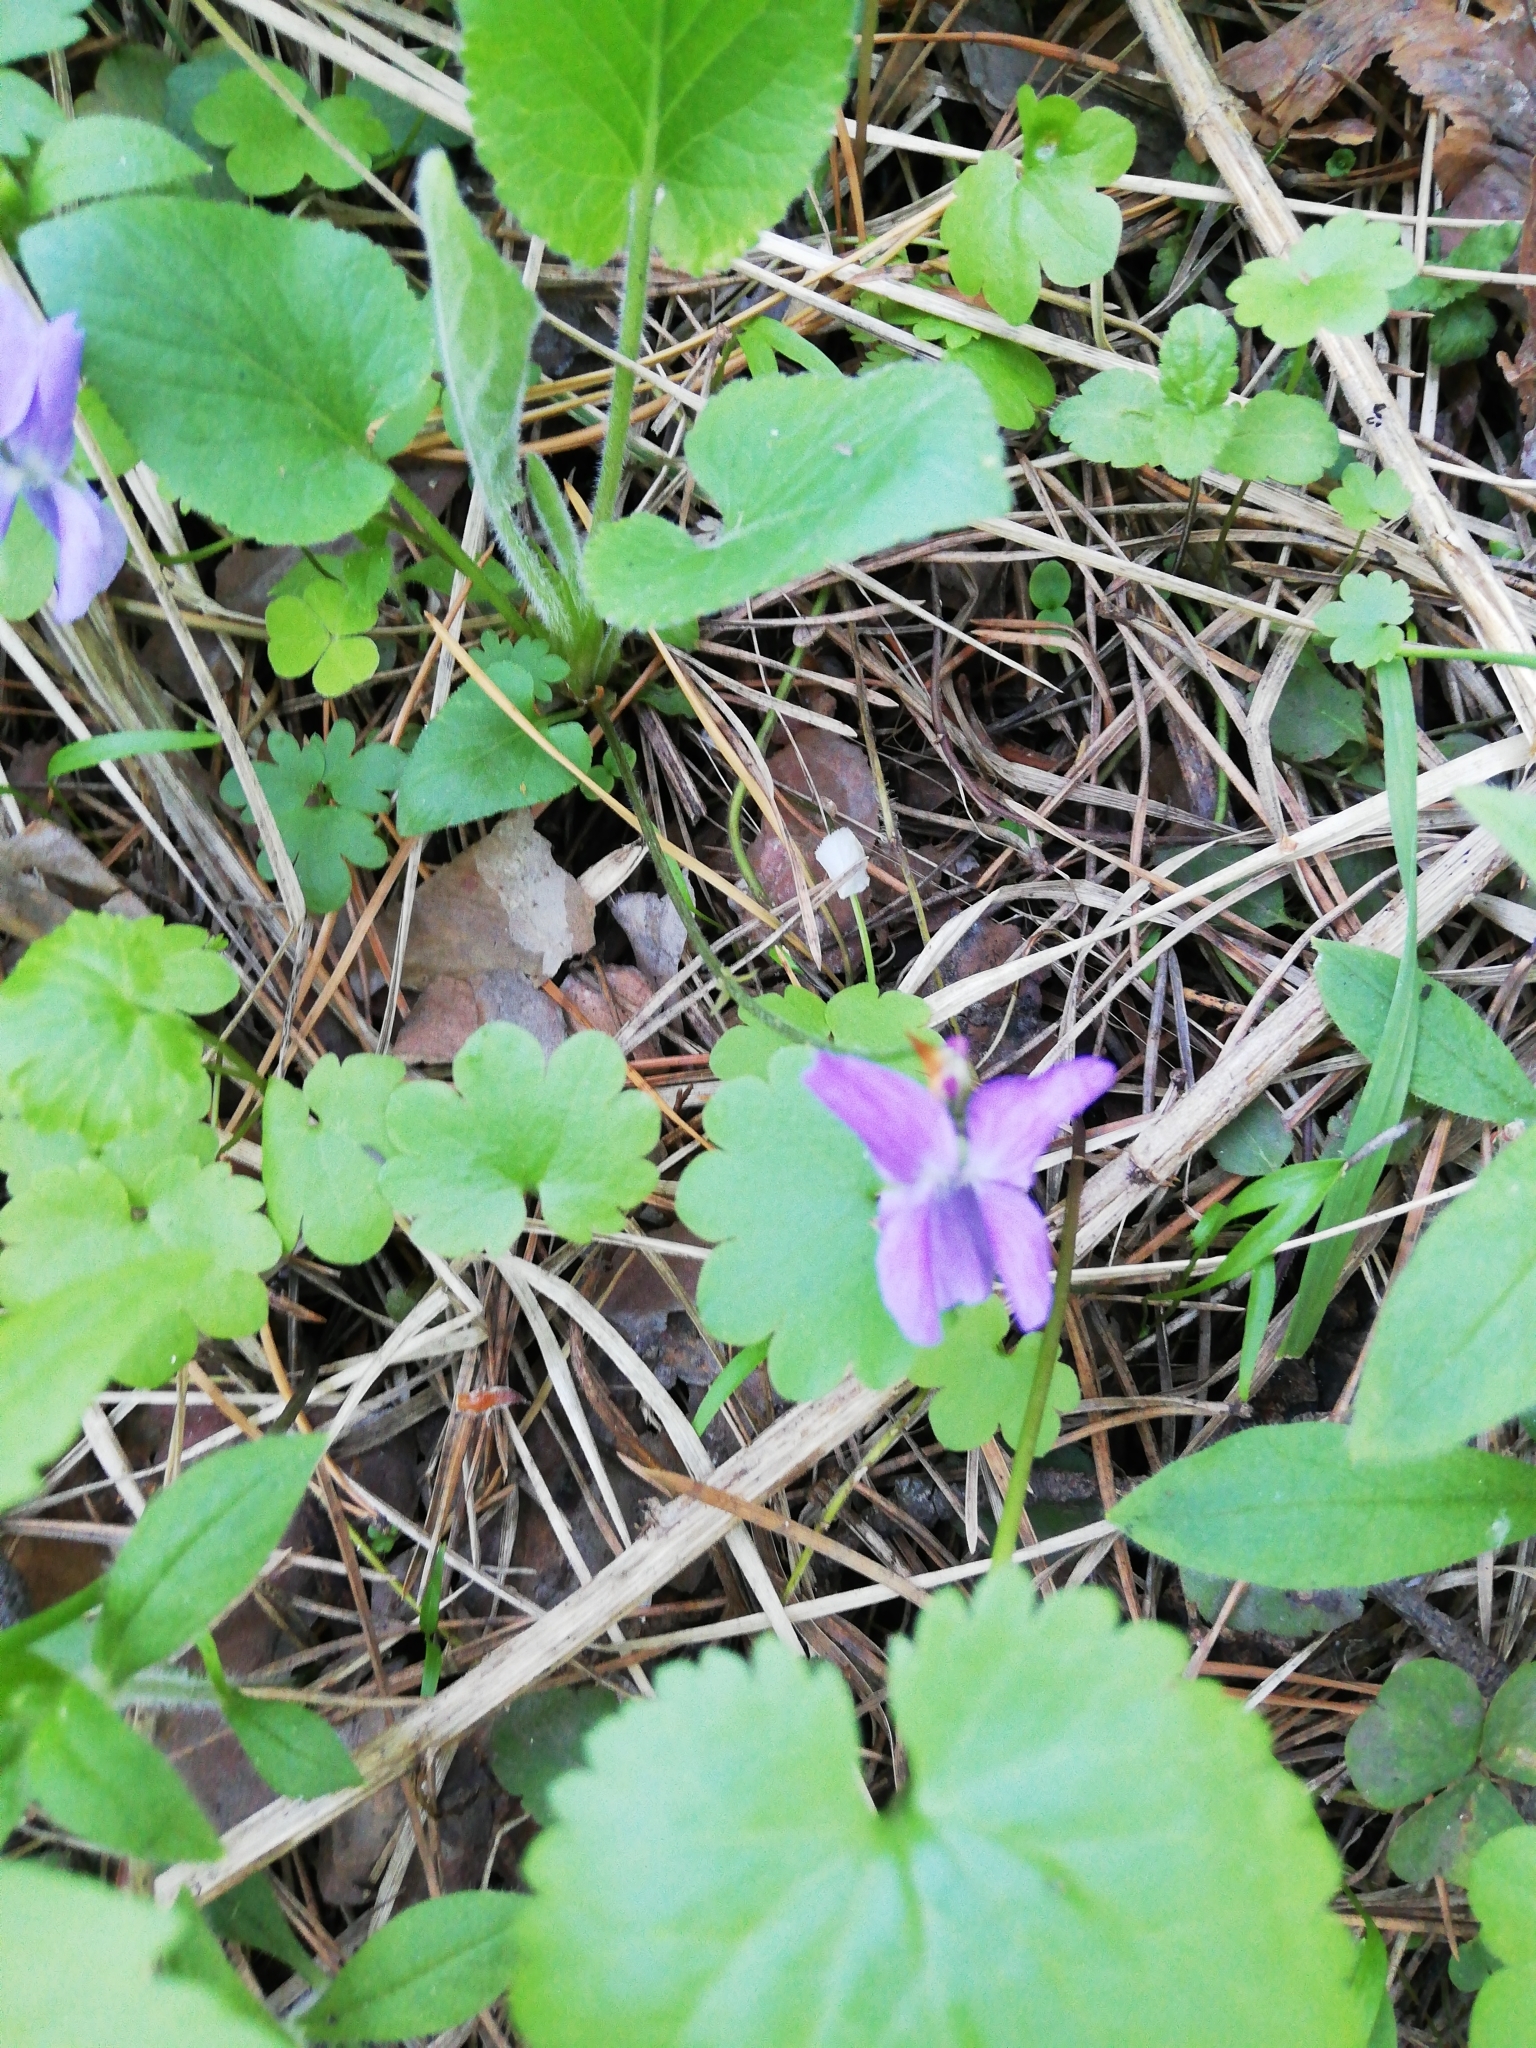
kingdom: Plantae
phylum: Tracheophyta
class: Magnoliopsida
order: Malpighiales
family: Violaceae
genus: Viola
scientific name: Viola hirta
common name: Hairy violet
